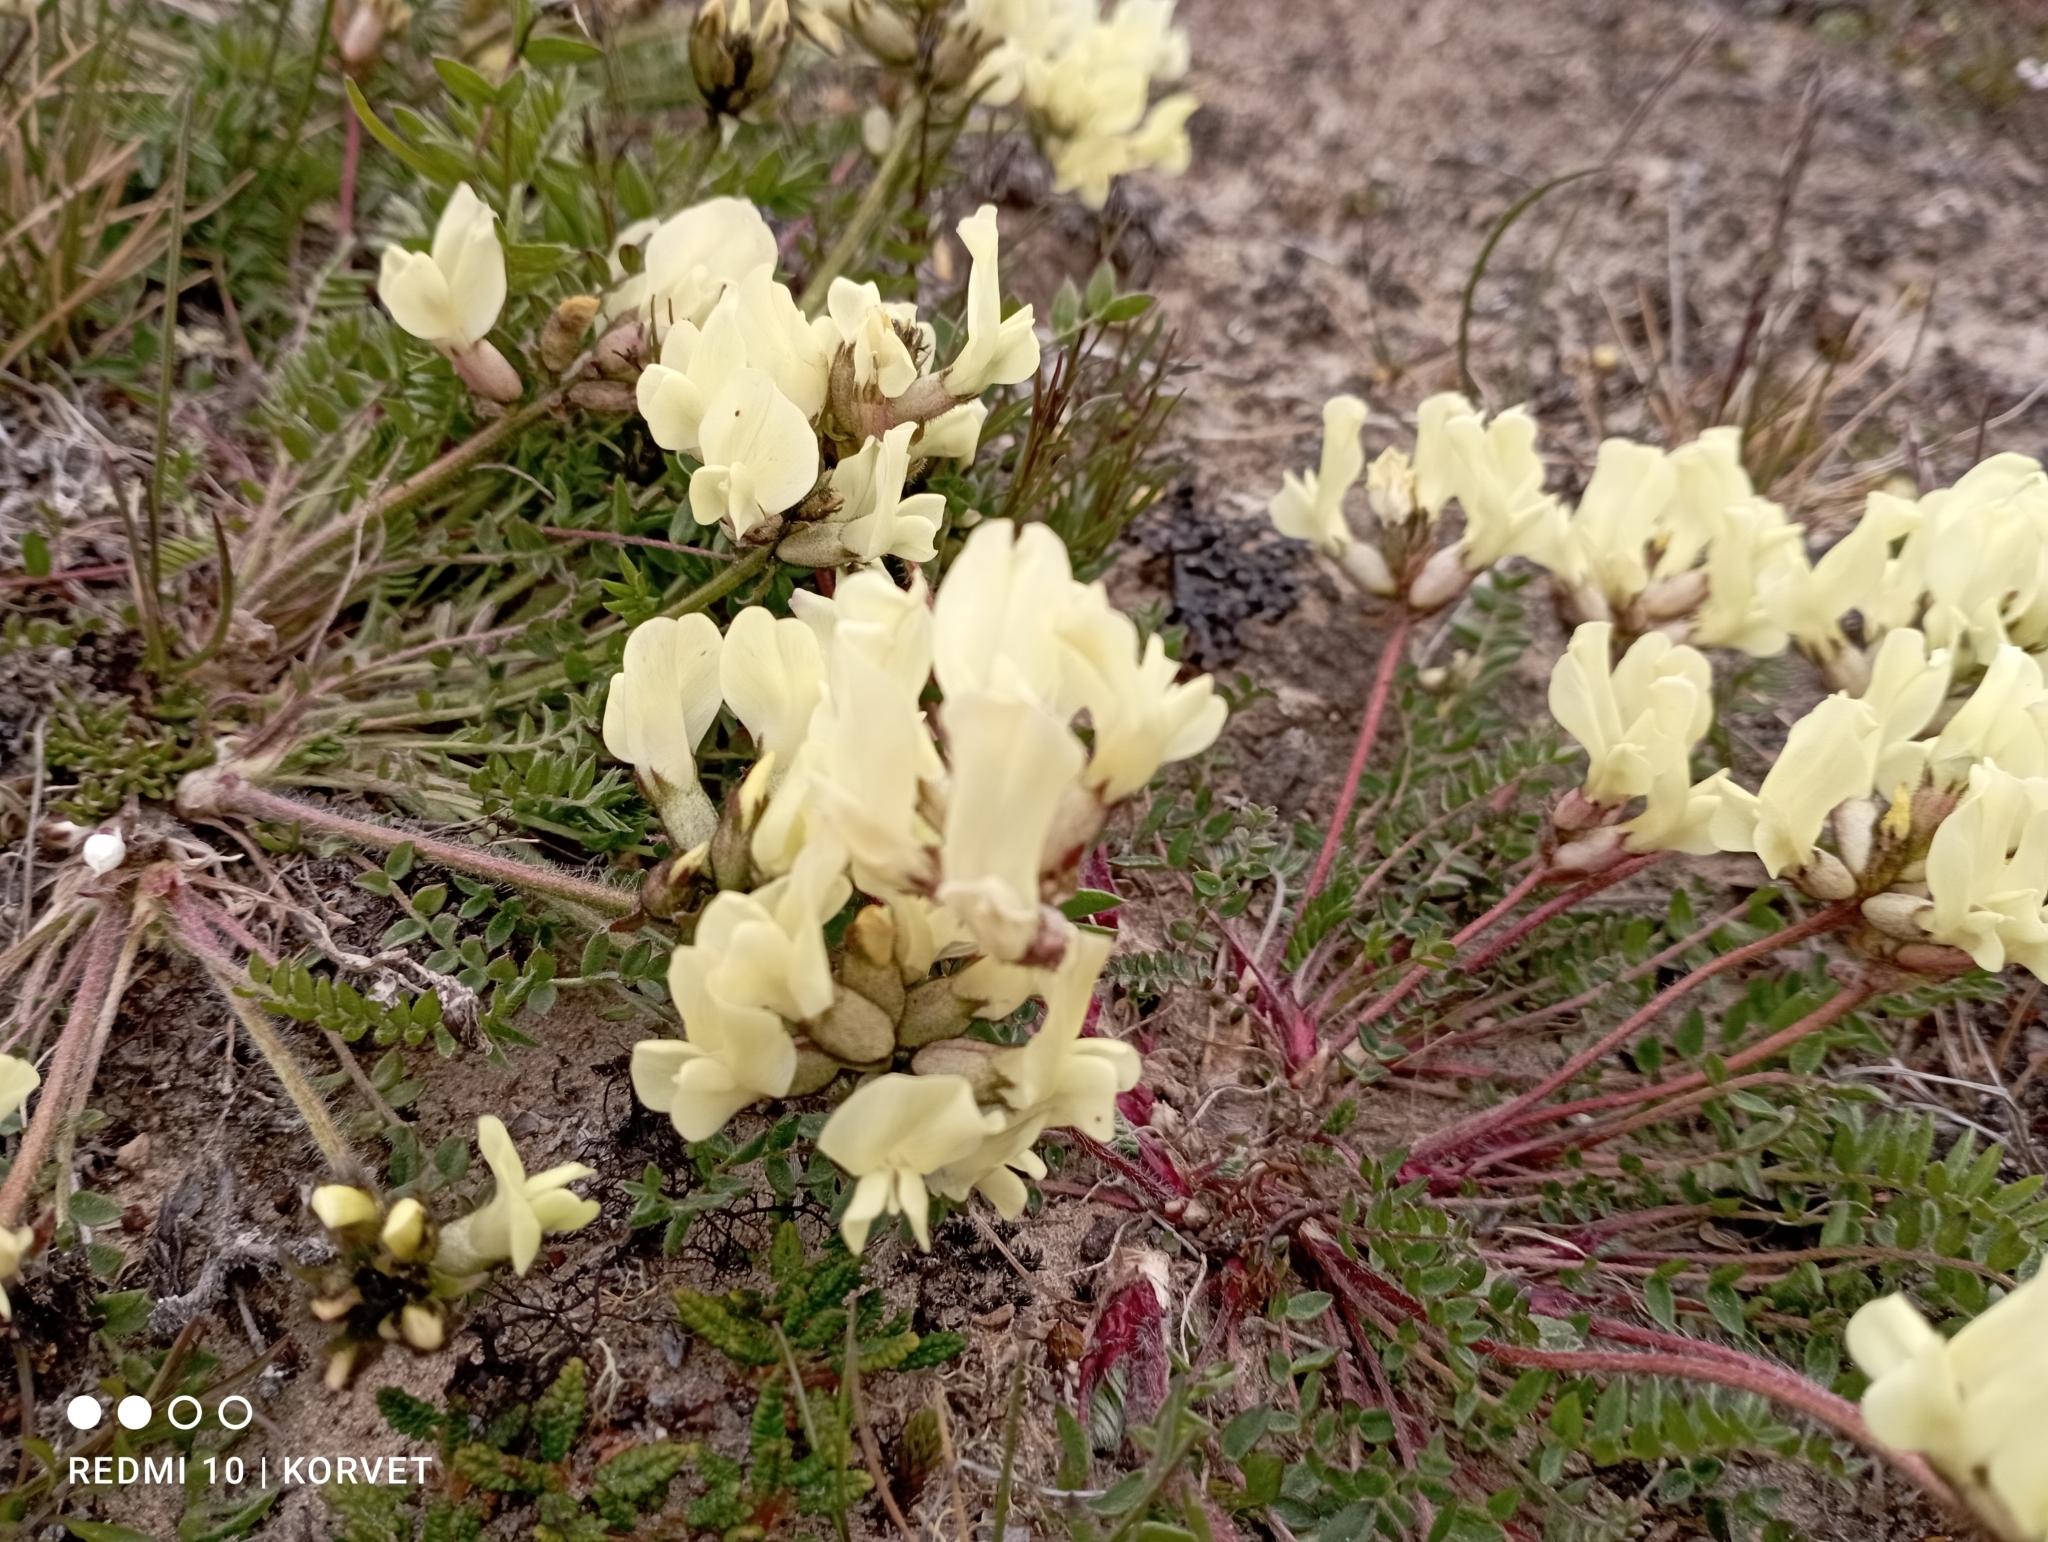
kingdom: Plantae
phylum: Tracheophyta
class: Magnoliopsida
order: Fabales
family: Fabaceae
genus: Oxytropis
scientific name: Oxytropis sordida
